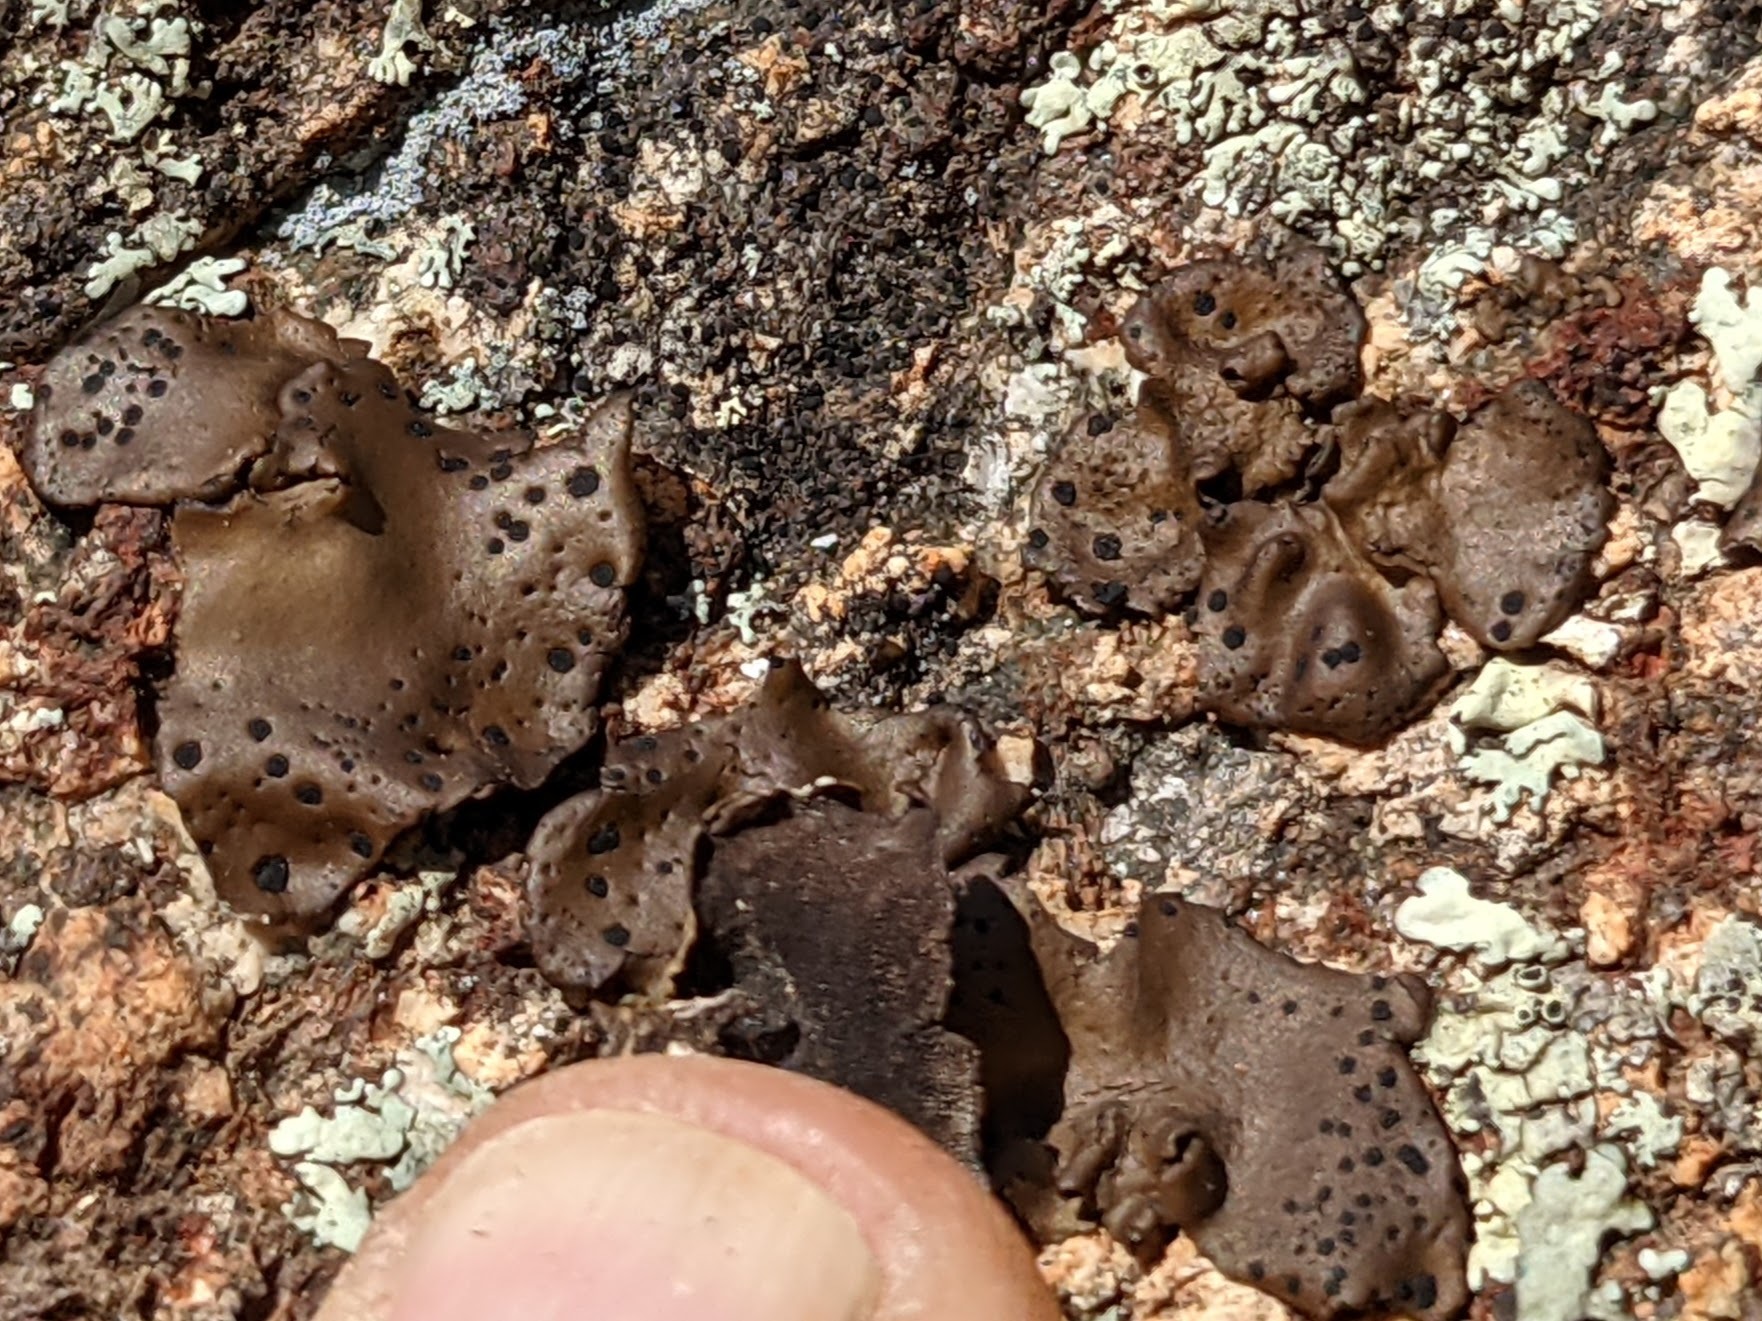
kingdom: Fungi
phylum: Ascomycota
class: Lecanoromycetes
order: Umbilicariales
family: Umbilicariaceae
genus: Umbilicaria
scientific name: Umbilicaria phaea
